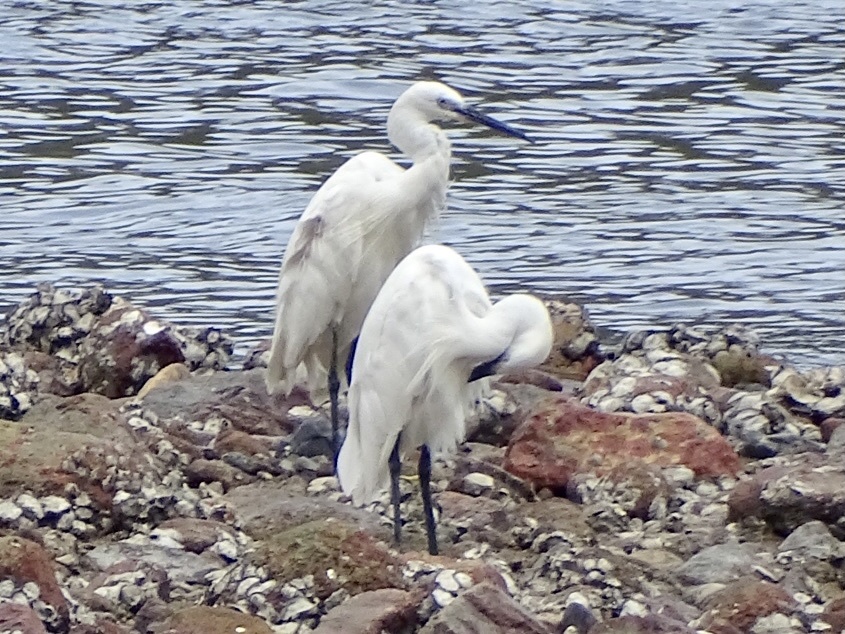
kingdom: Animalia
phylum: Chordata
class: Aves
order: Pelecaniformes
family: Ardeidae
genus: Egretta
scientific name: Egretta garzetta
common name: Little egret
